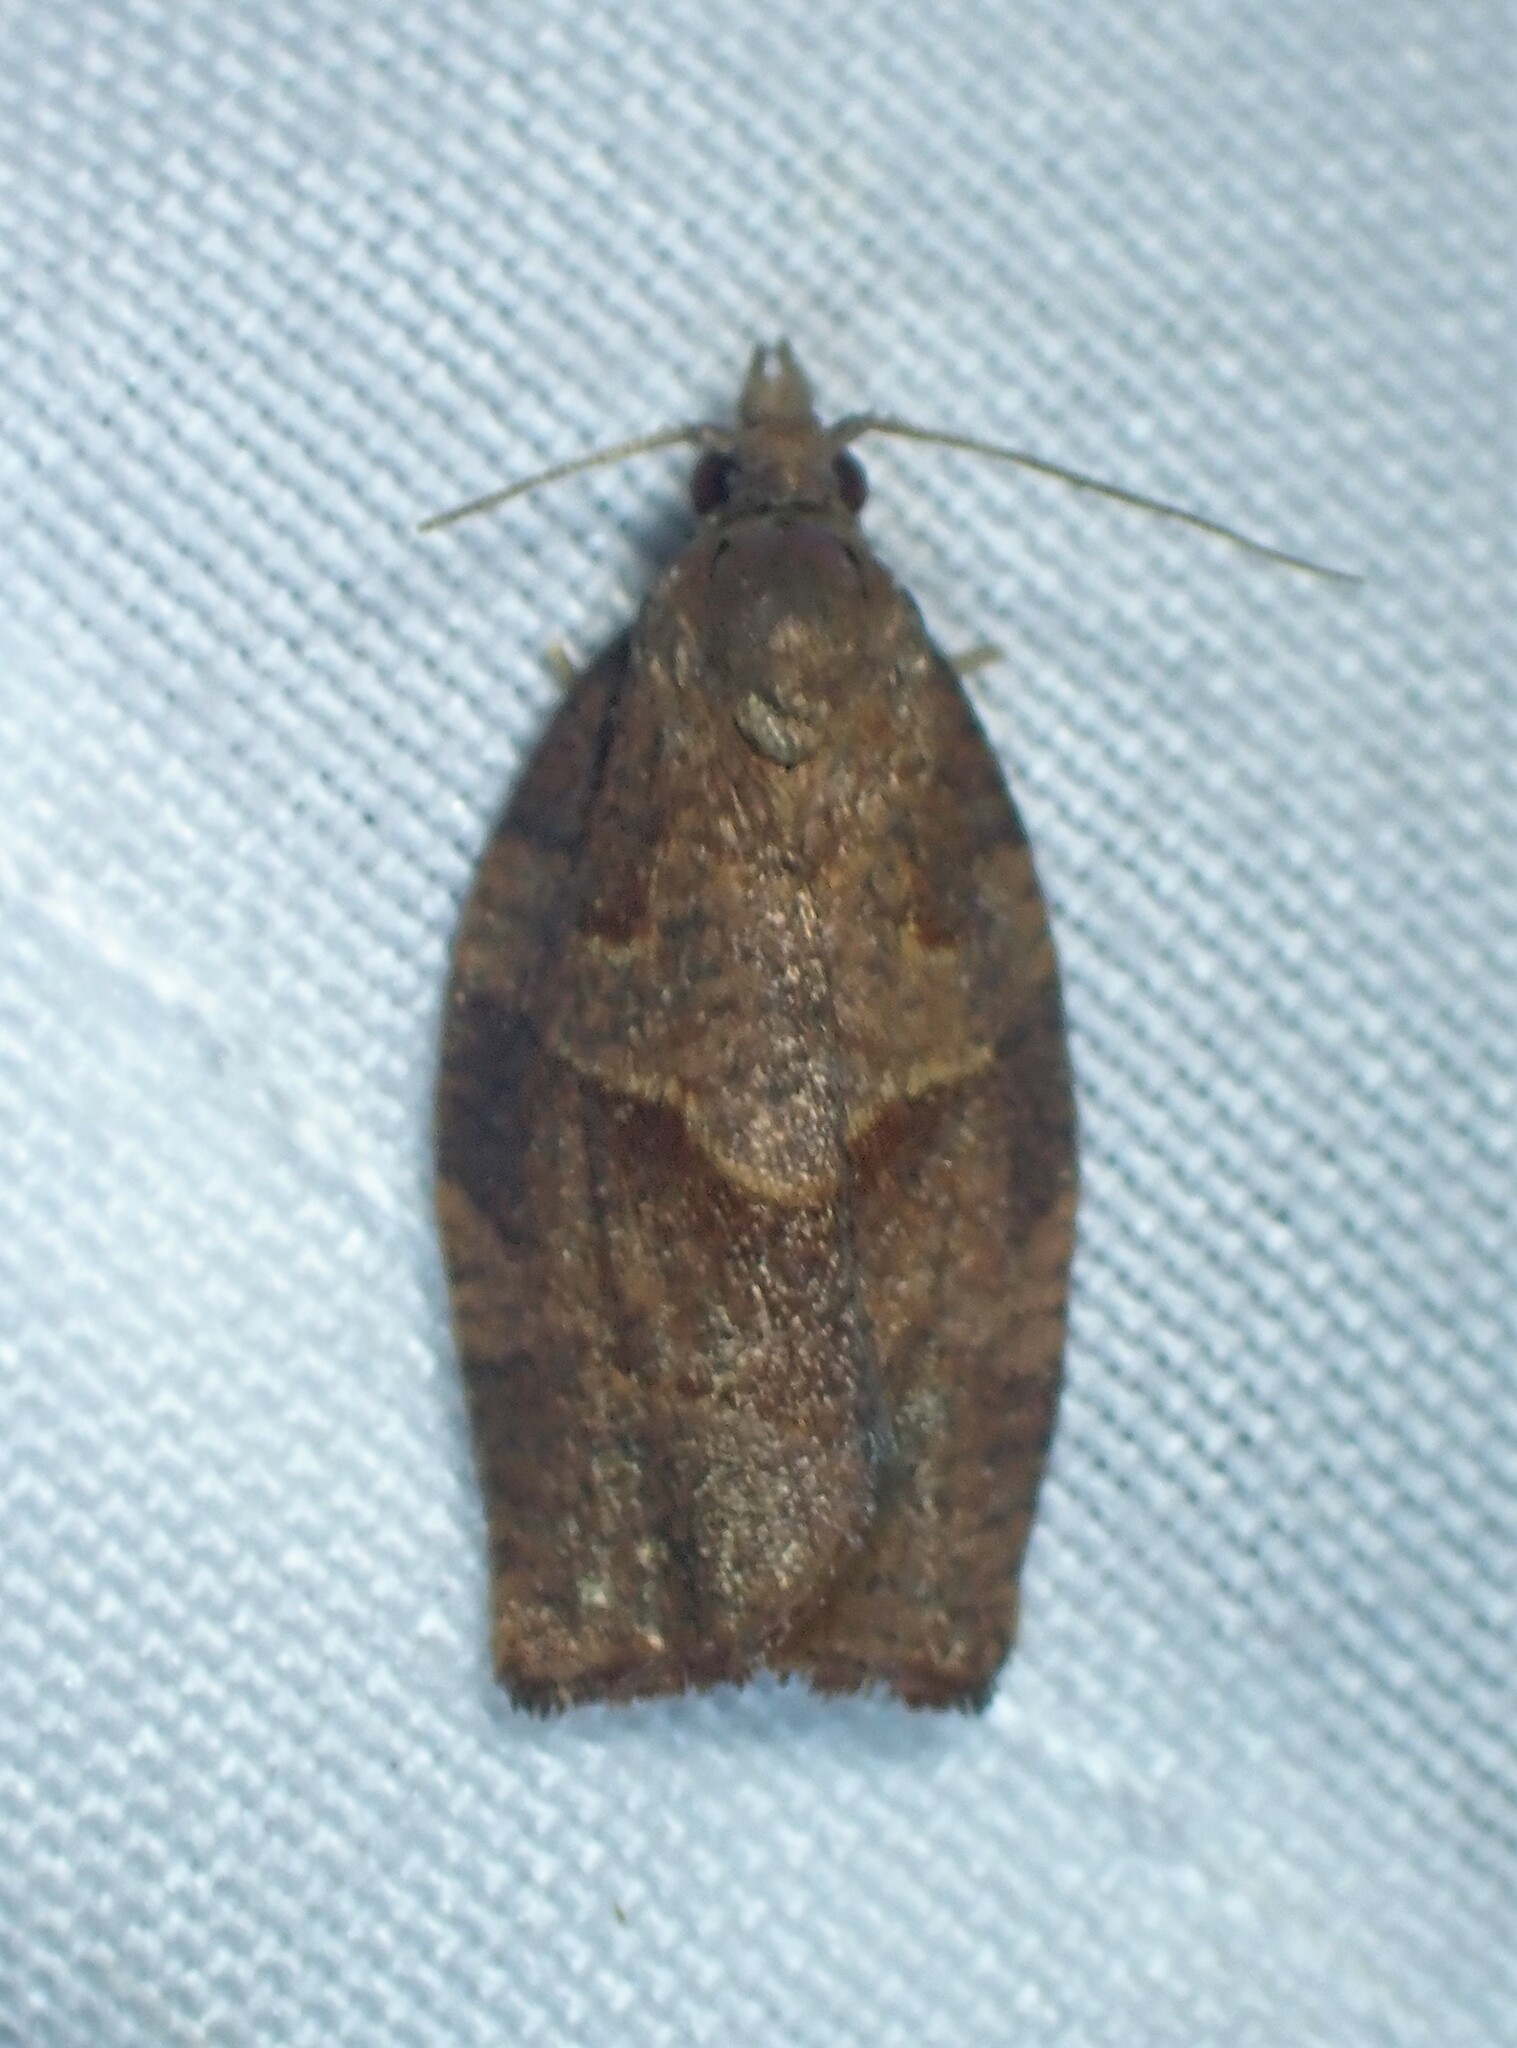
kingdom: Animalia
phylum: Arthropoda
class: Insecta
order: Lepidoptera
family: Tortricidae
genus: Pandemis
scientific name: Pandemis heparana
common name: Dark fruit-tree tortrix
